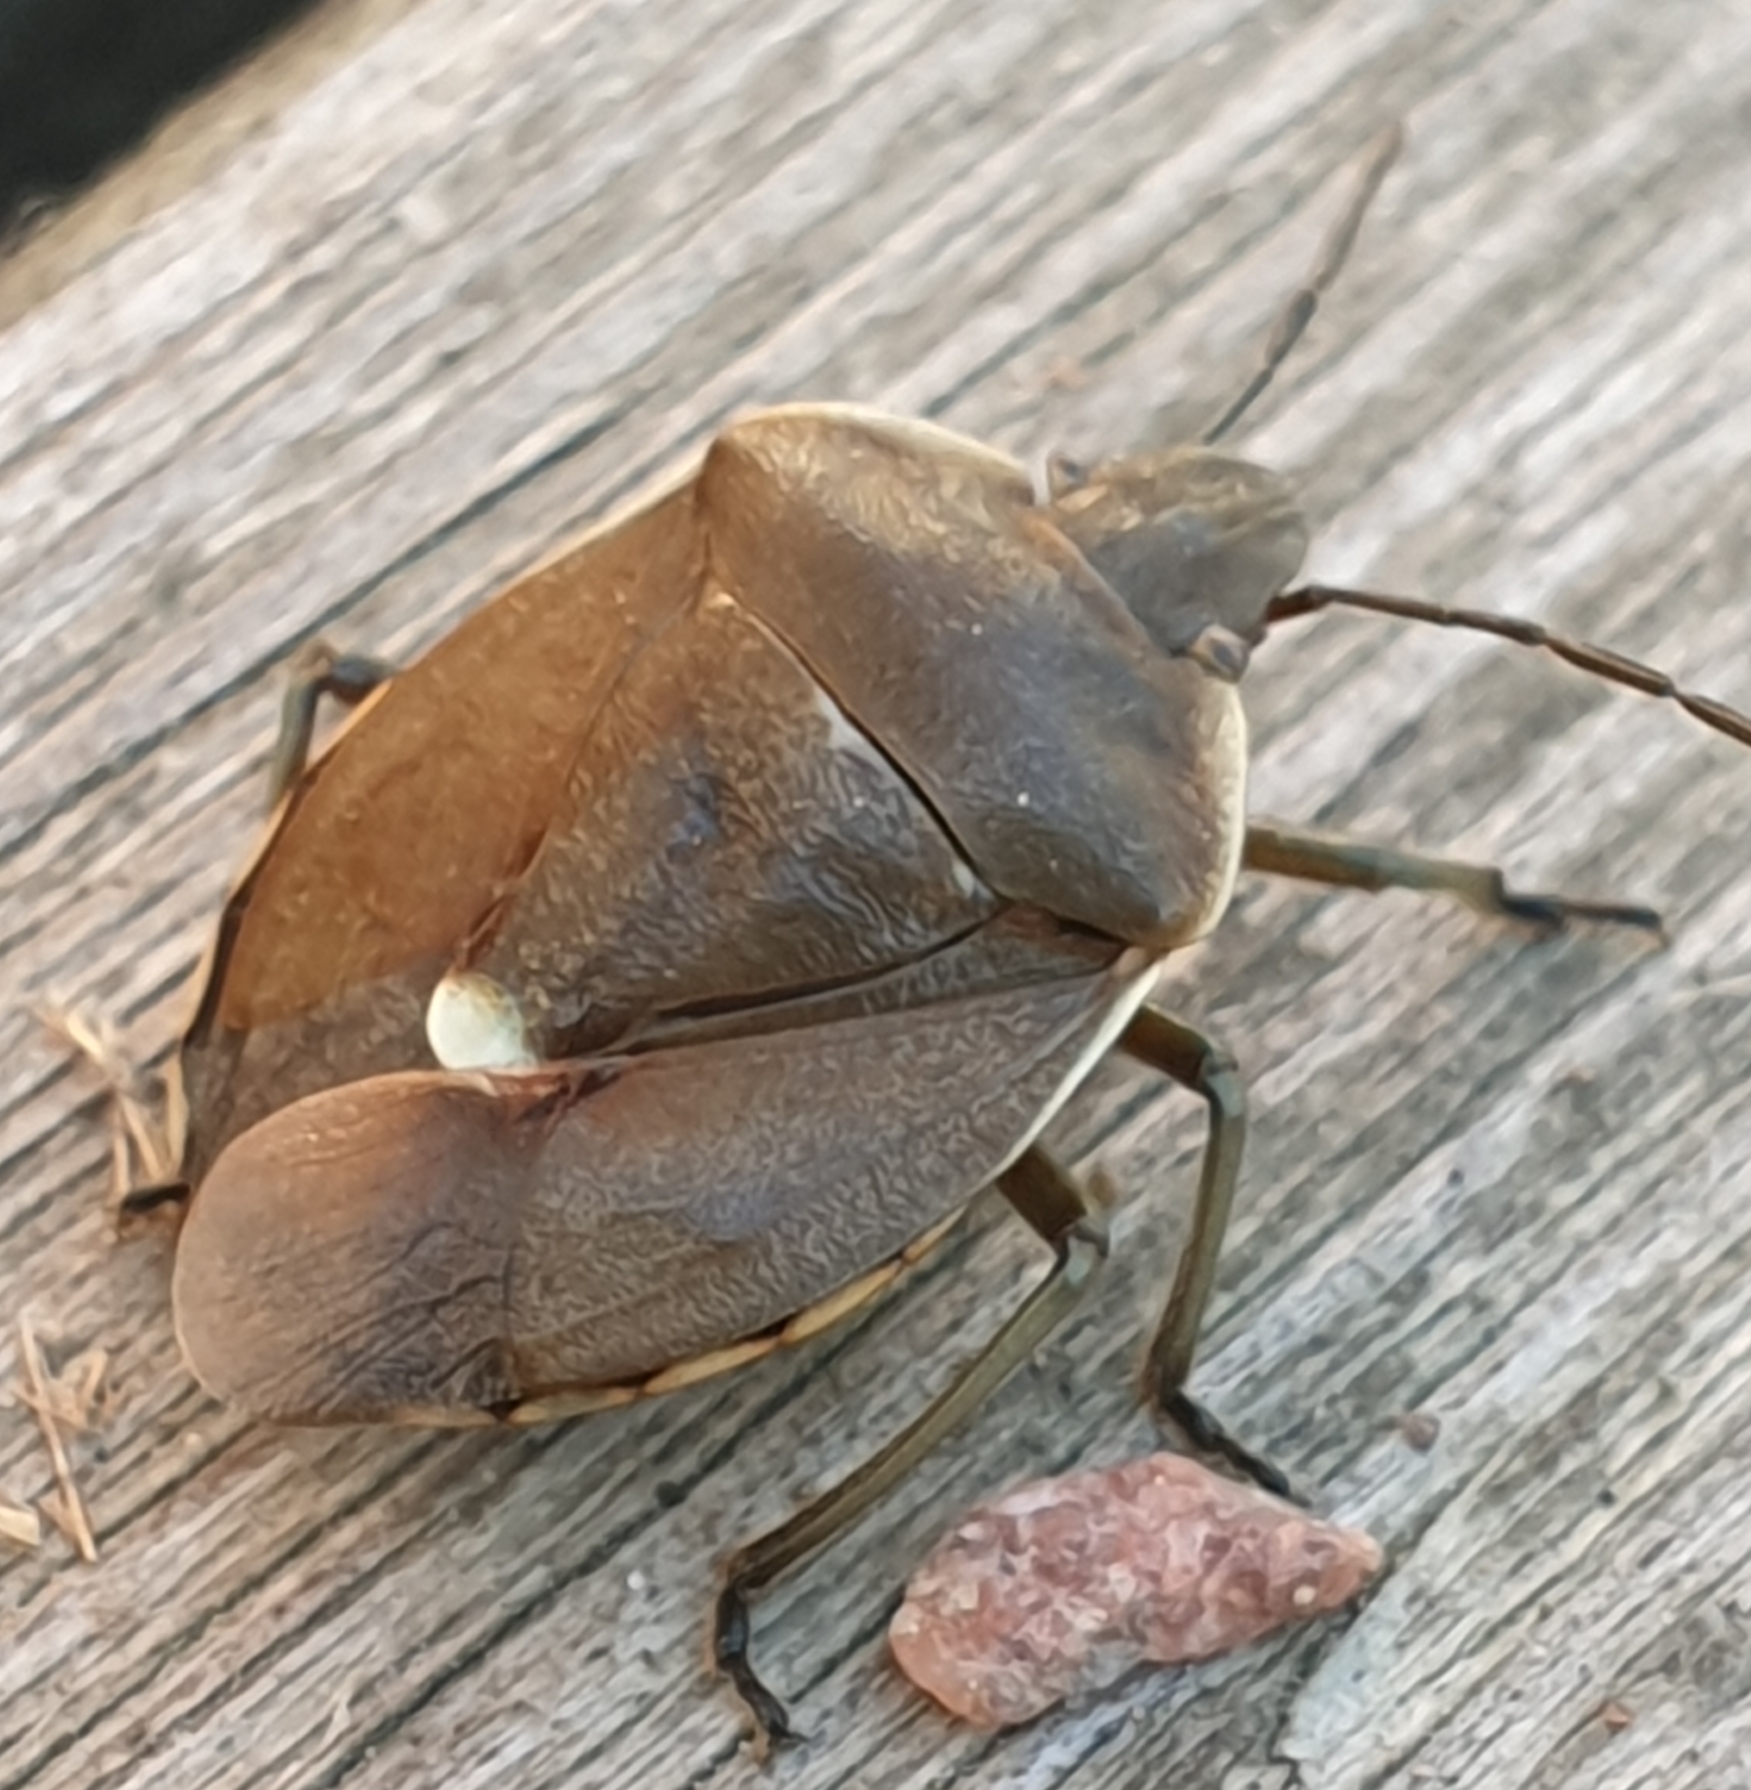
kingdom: Animalia
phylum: Arthropoda
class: Insecta
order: Hemiptera
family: Pentatomidae
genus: Chlorochroa
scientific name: Chlorochroa pinicola
